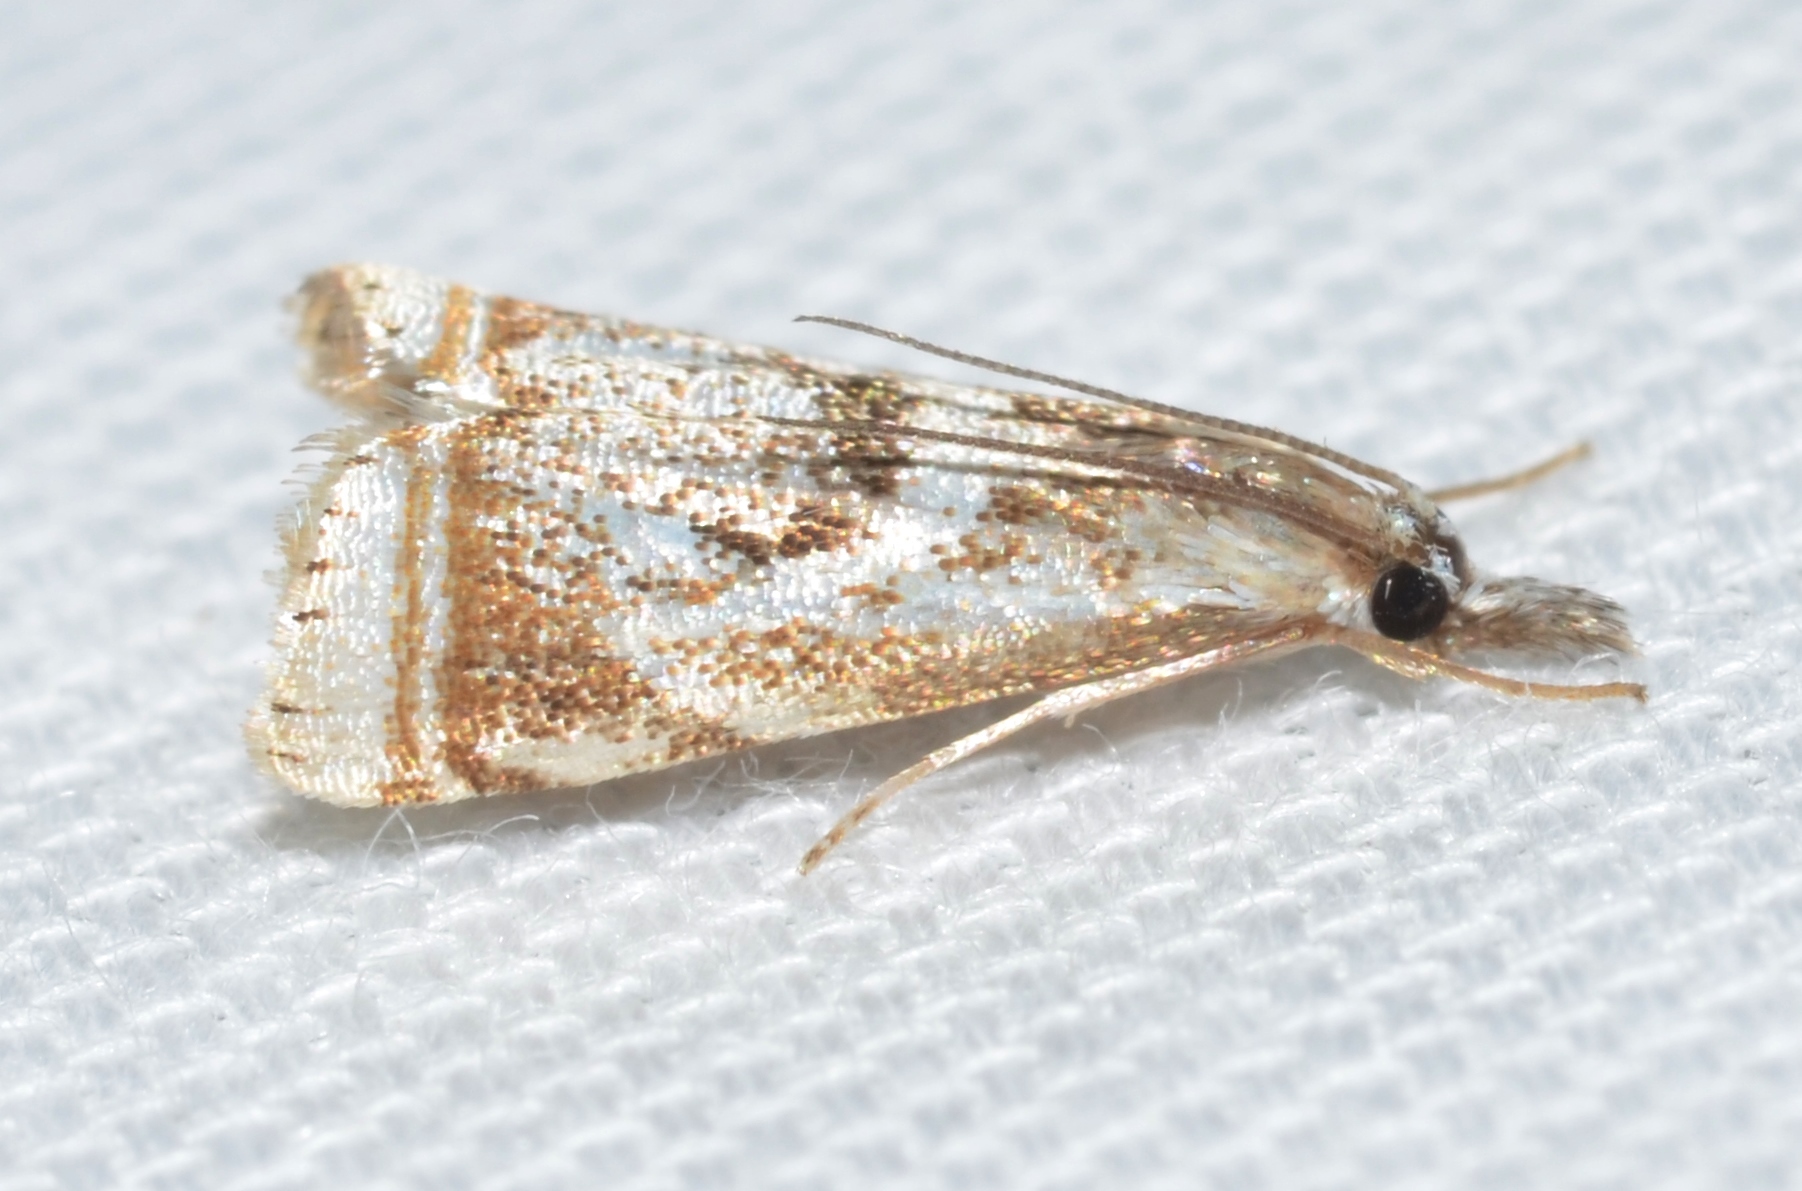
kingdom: Animalia
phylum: Arthropoda
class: Insecta
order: Lepidoptera
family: Crambidae
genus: Microcrambus
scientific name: Microcrambus elegans
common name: Elegant grass-veneer
